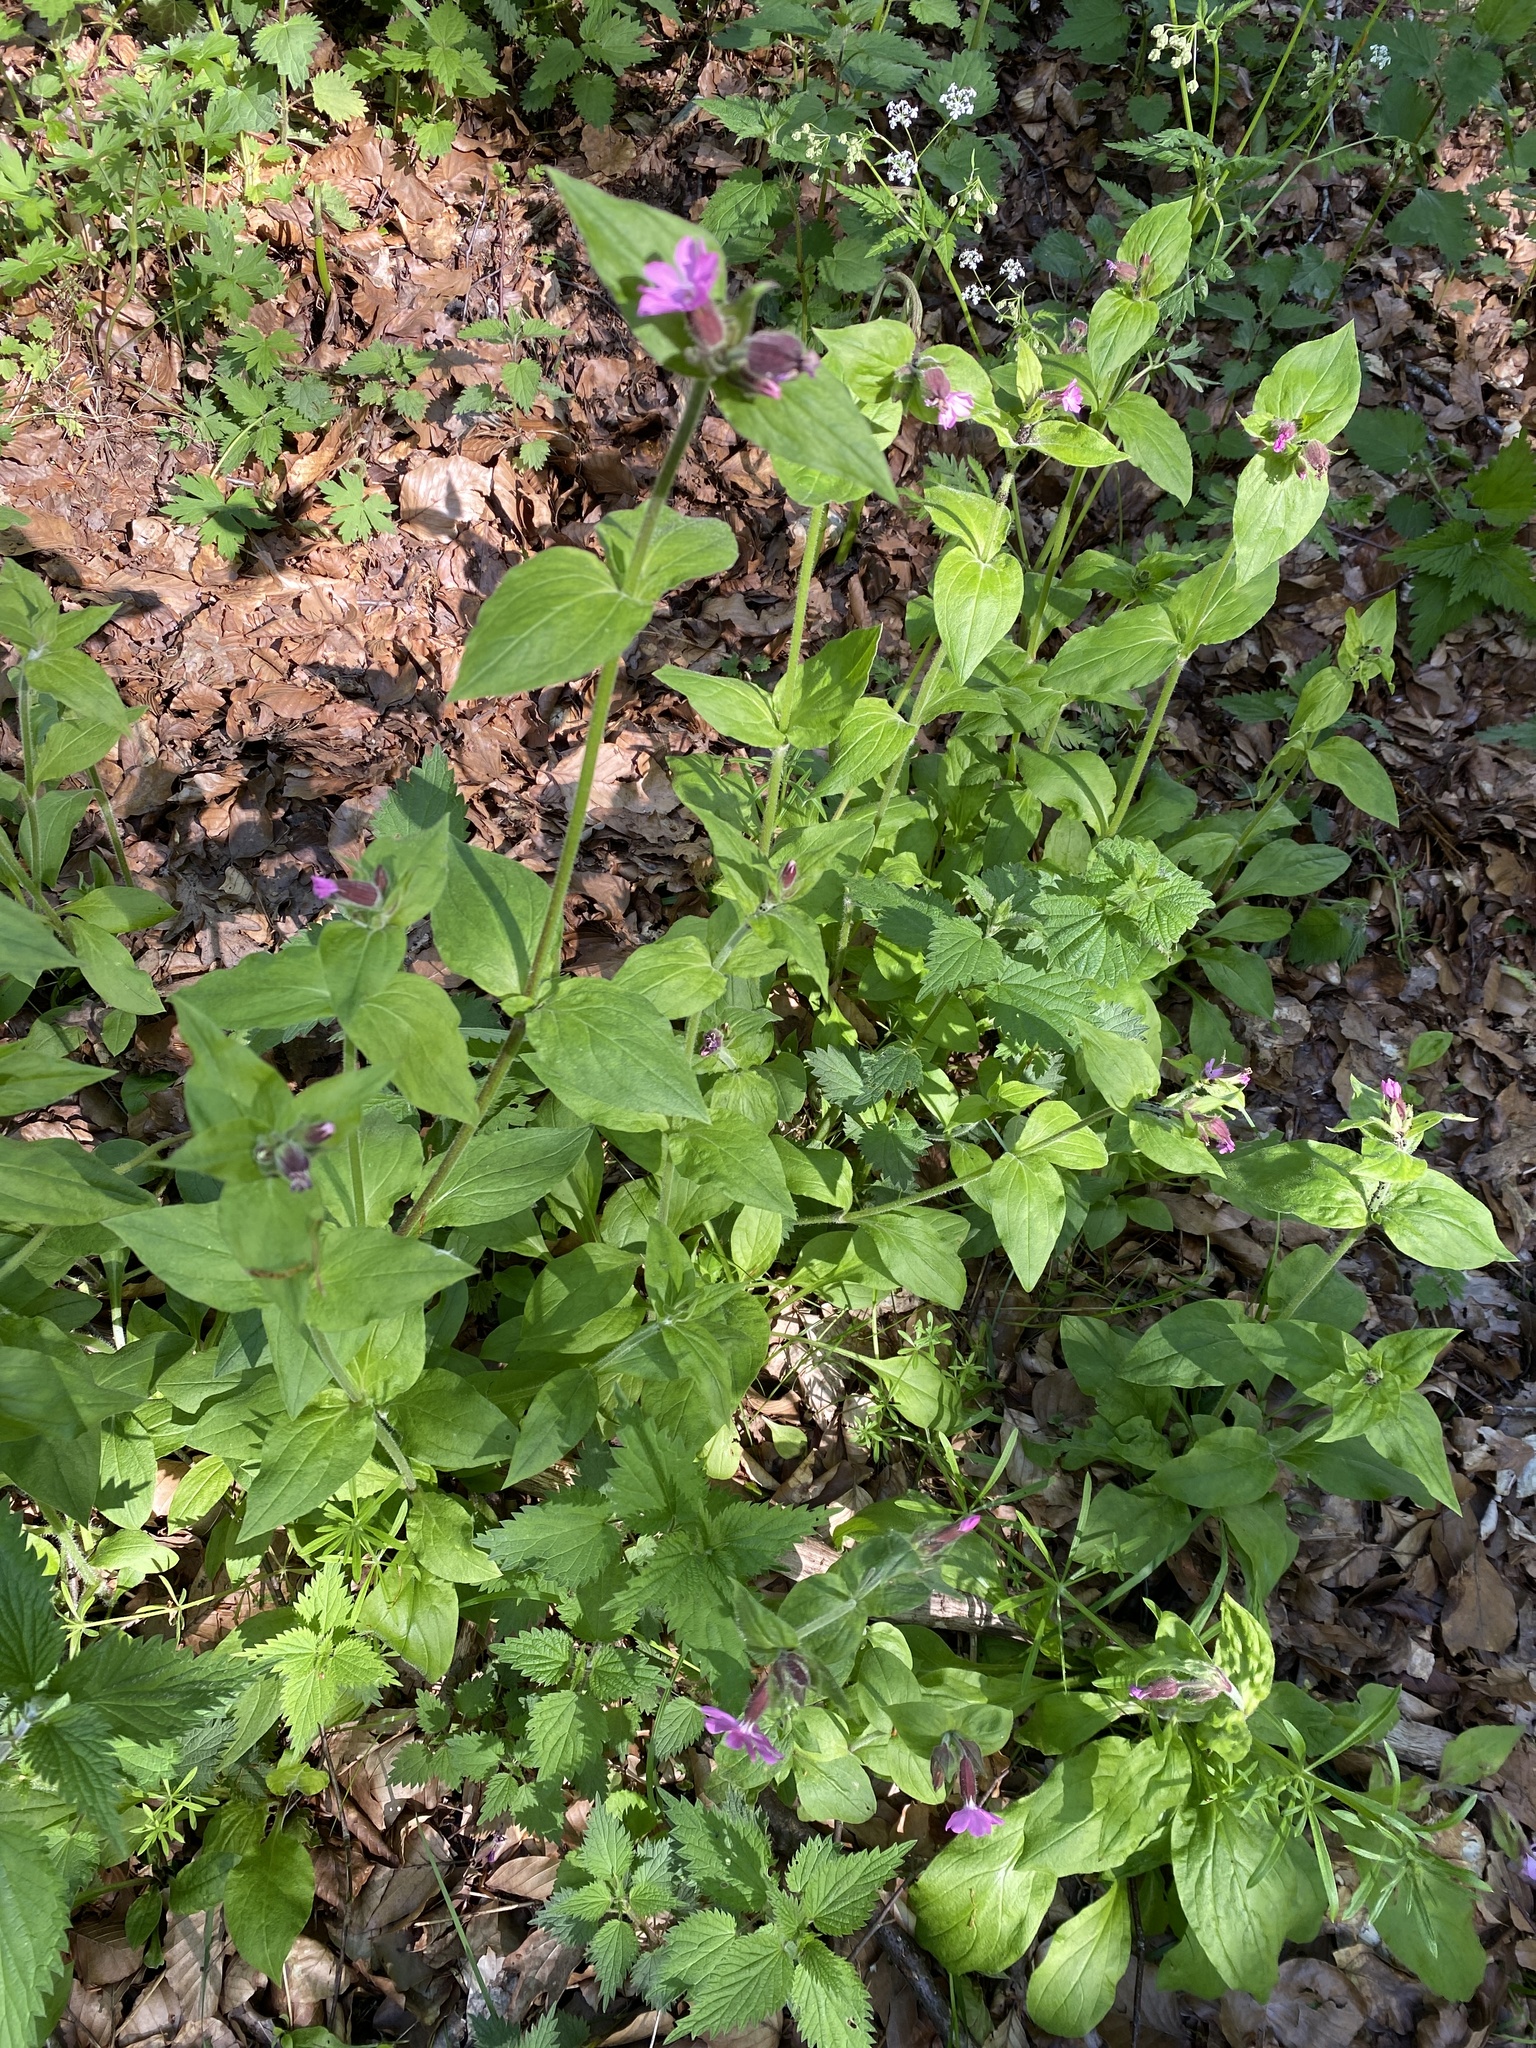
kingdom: Plantae
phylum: Tracheophyta
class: Magnoliopsida
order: Caryophyllales
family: Caryophyllaceae
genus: Silene
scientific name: Silene dioica
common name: Red campion
